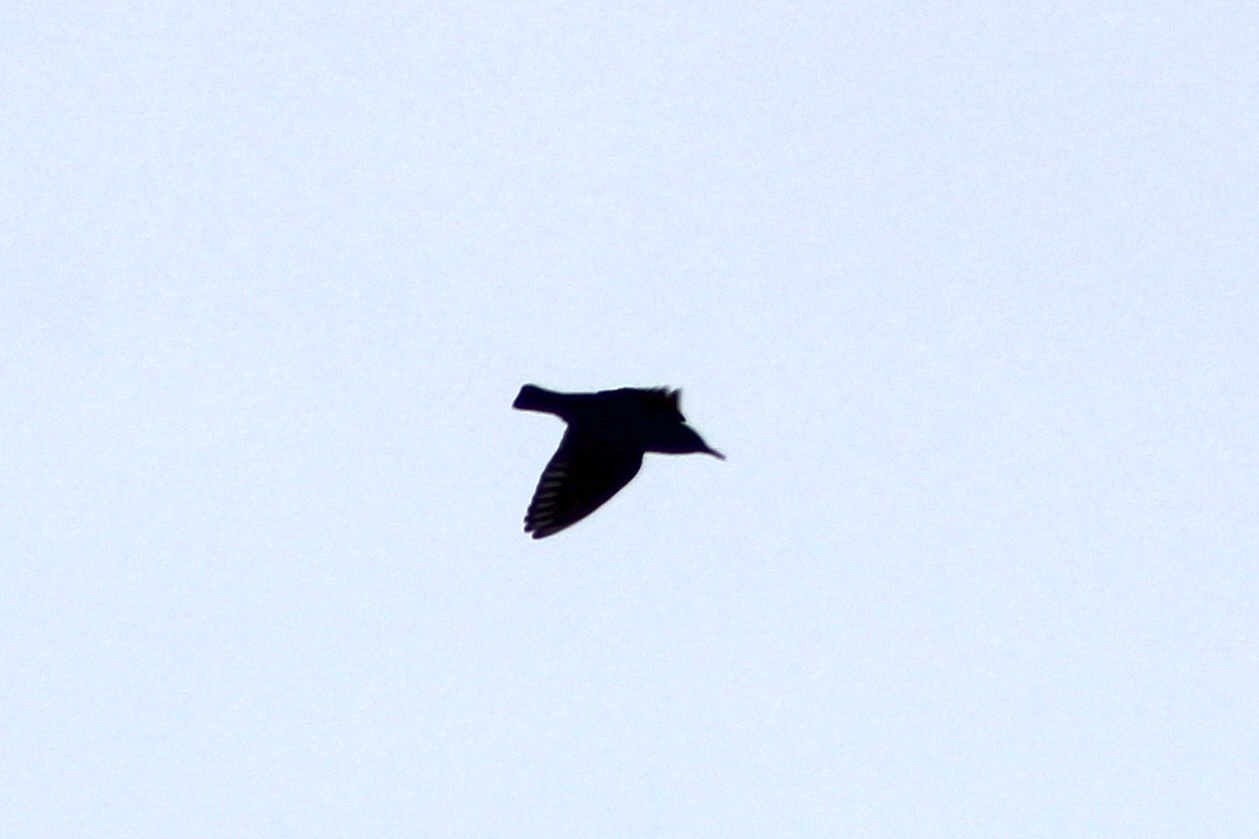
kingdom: Animalia
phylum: Chordata
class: Aves
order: Passeriformes
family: Sturnidae
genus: Sturnus
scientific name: Sturnus vulgaris
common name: Common starling
